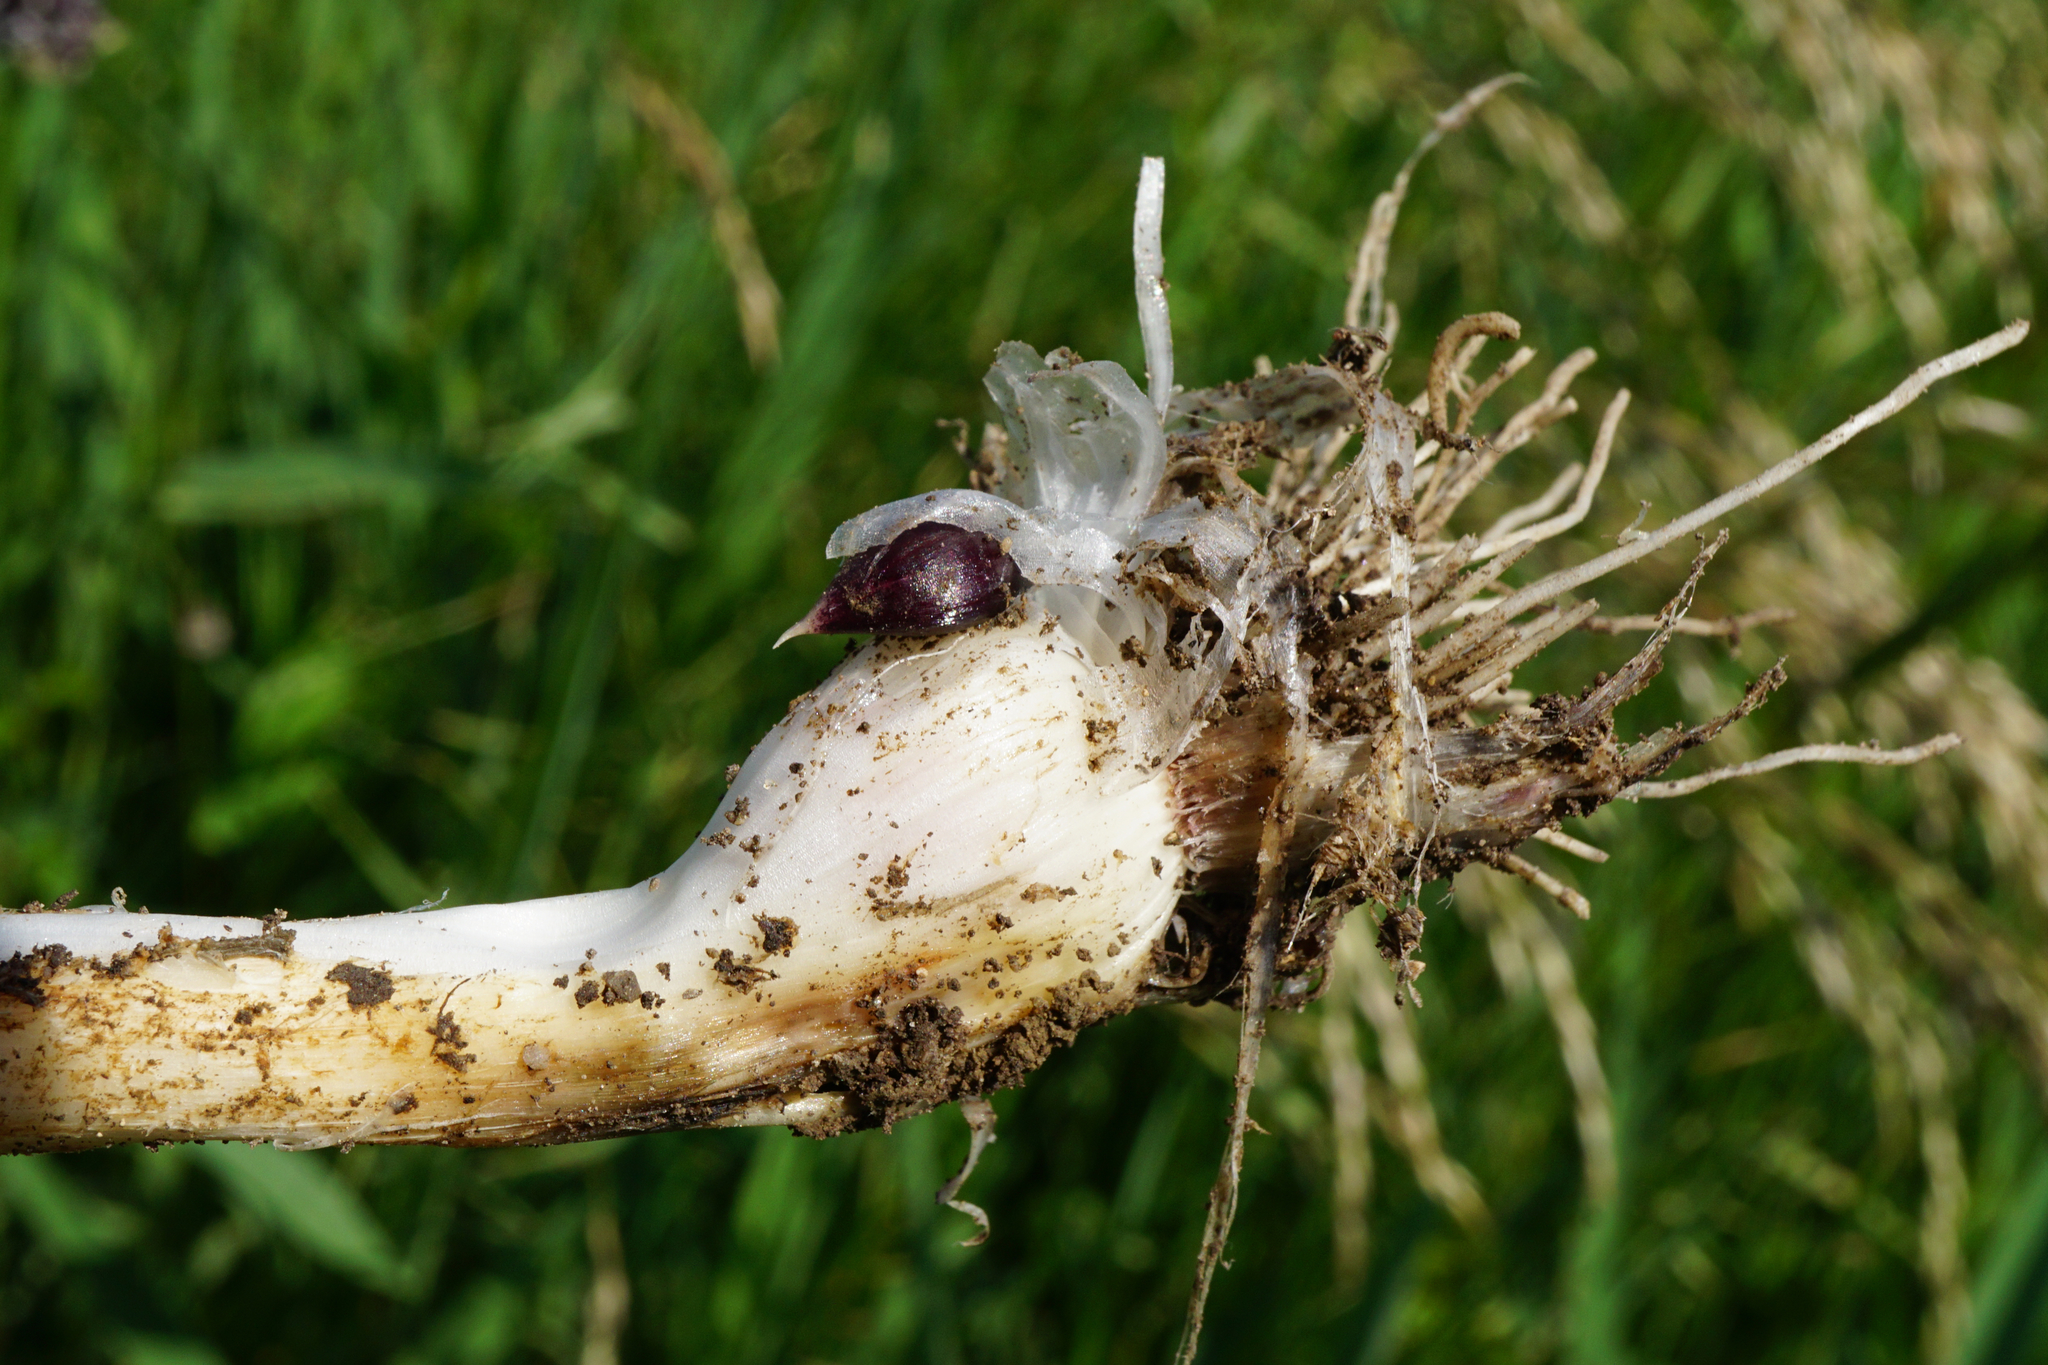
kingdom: Plantae
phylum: Tracheophyta
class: Liliopsida
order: Asparagales
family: Amaryllidaceae
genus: Allium
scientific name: Allium scorodoprasum
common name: Sand leek
